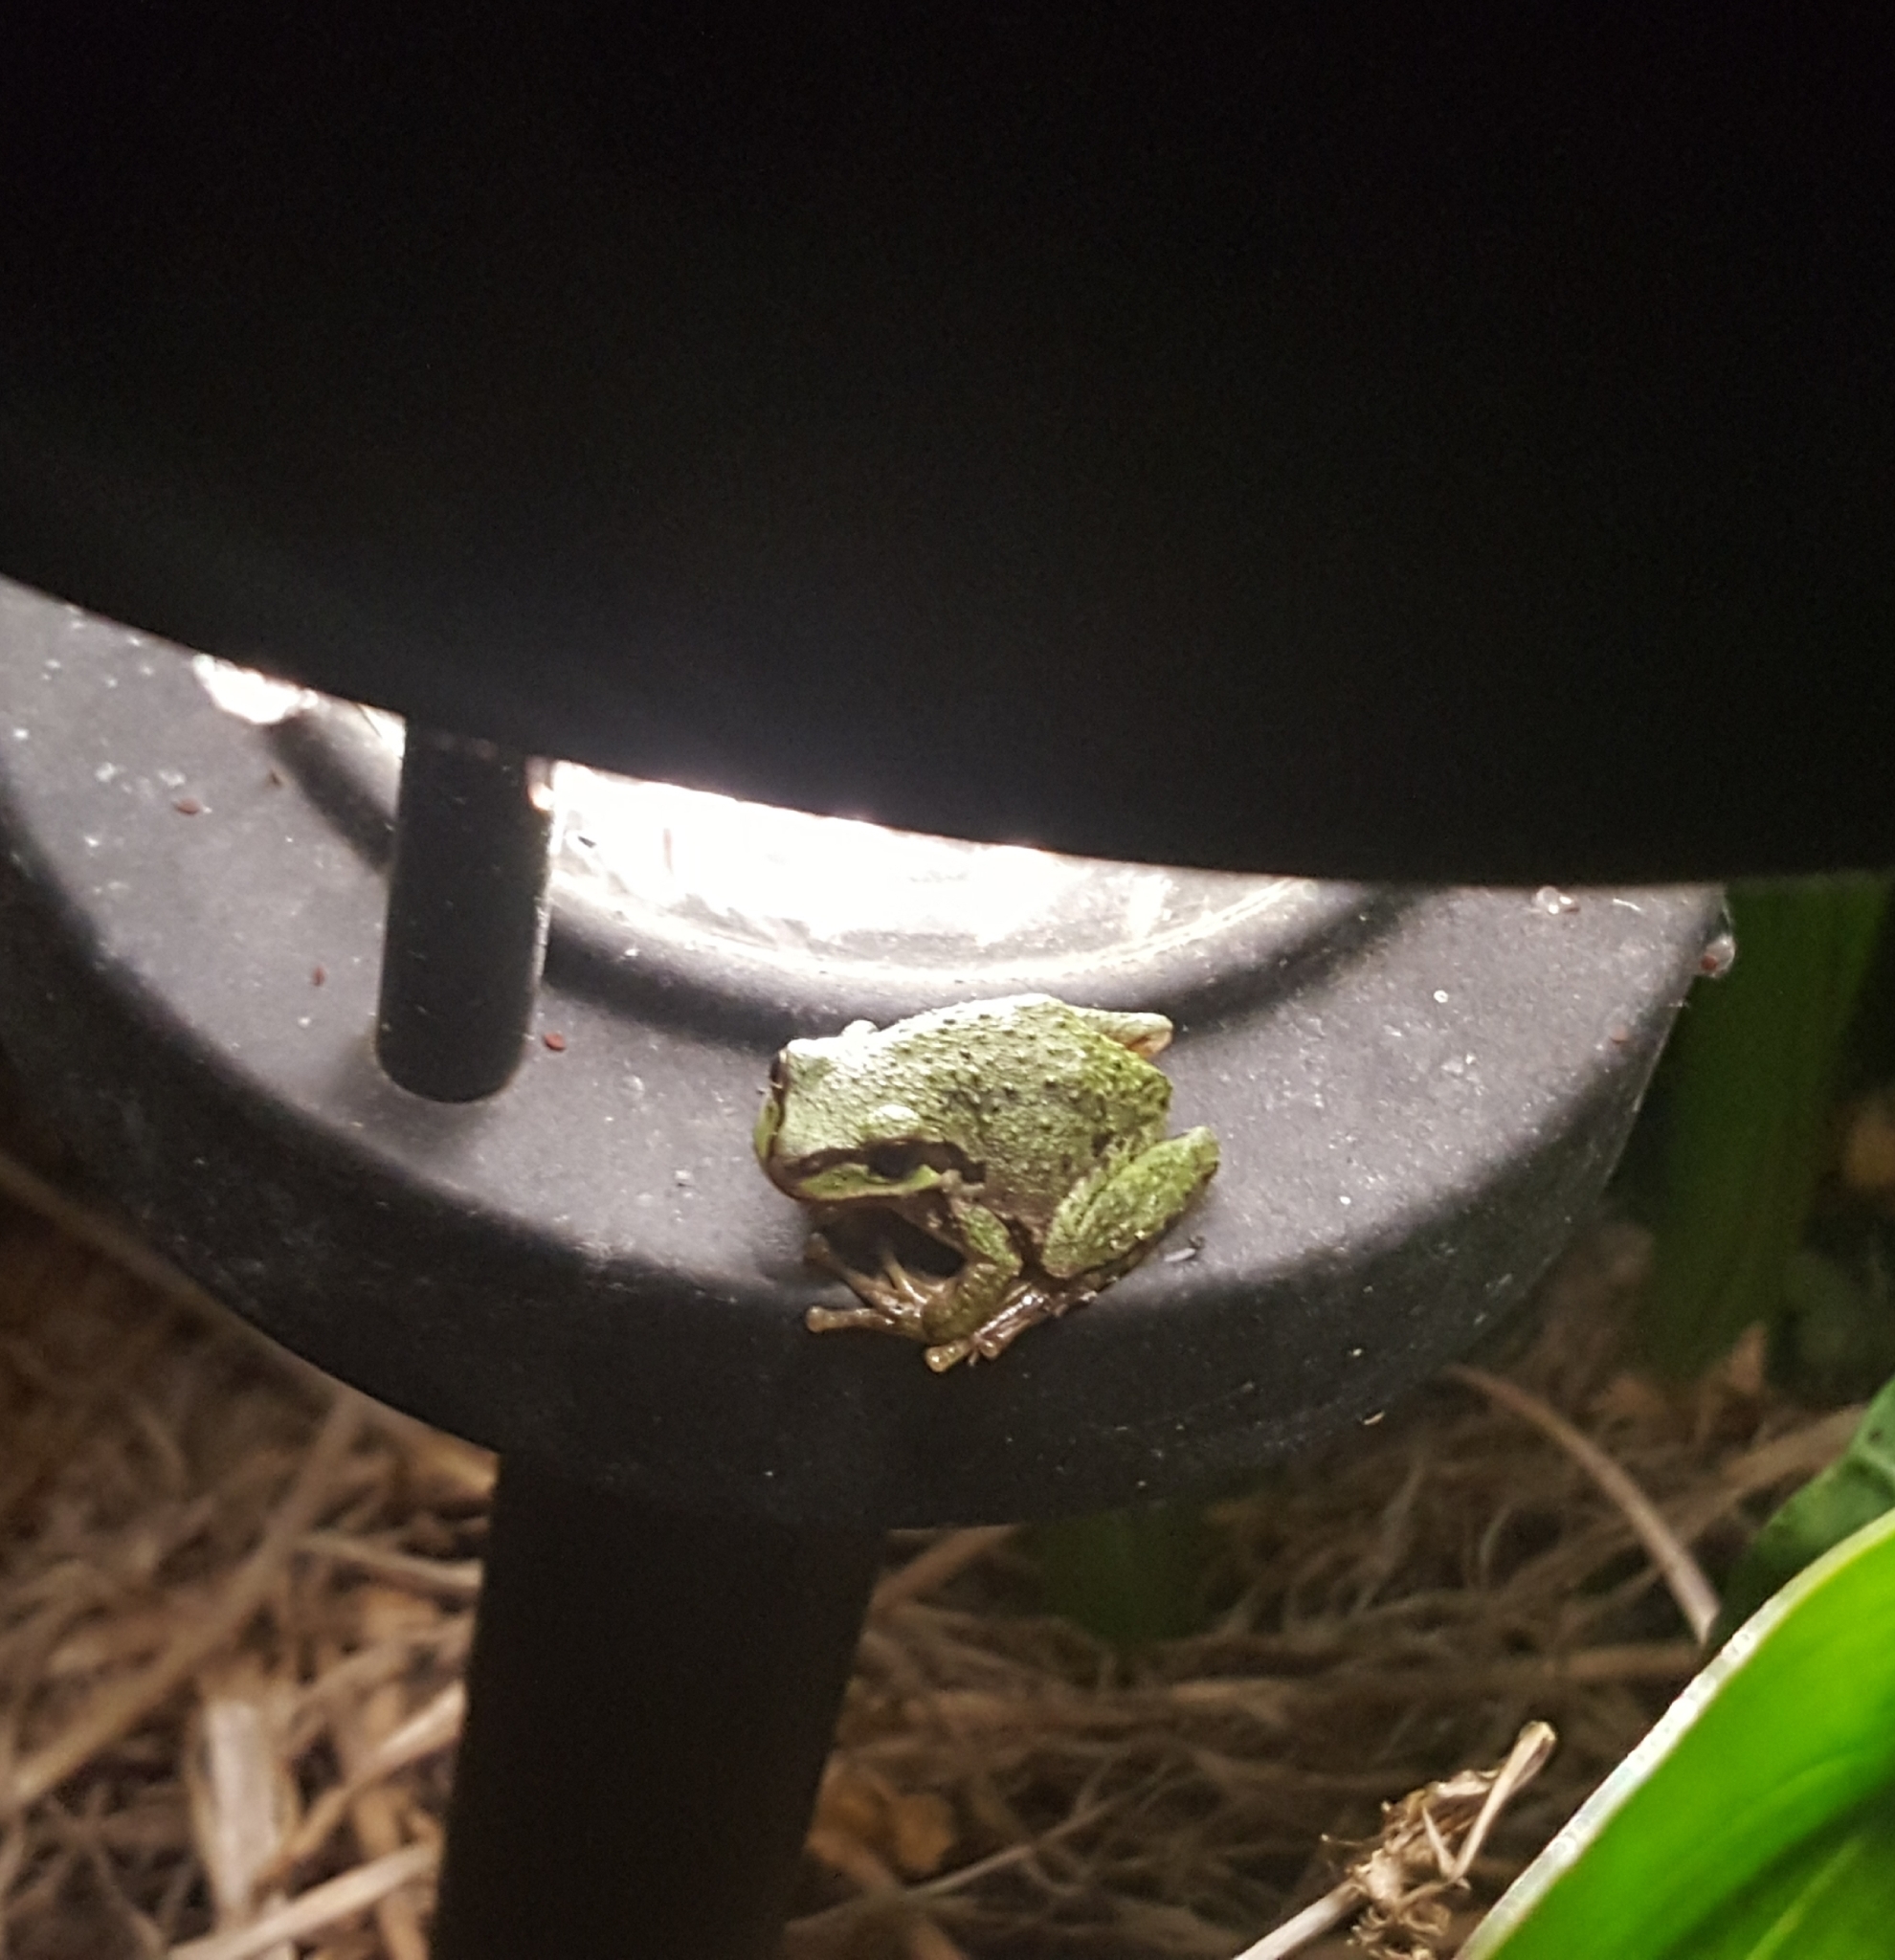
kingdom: Animalia
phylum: Chordata
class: Amphibia
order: Anura
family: Hylidae
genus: Pseudacris
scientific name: Pseudacris regilla
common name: Pacific chorus frog
